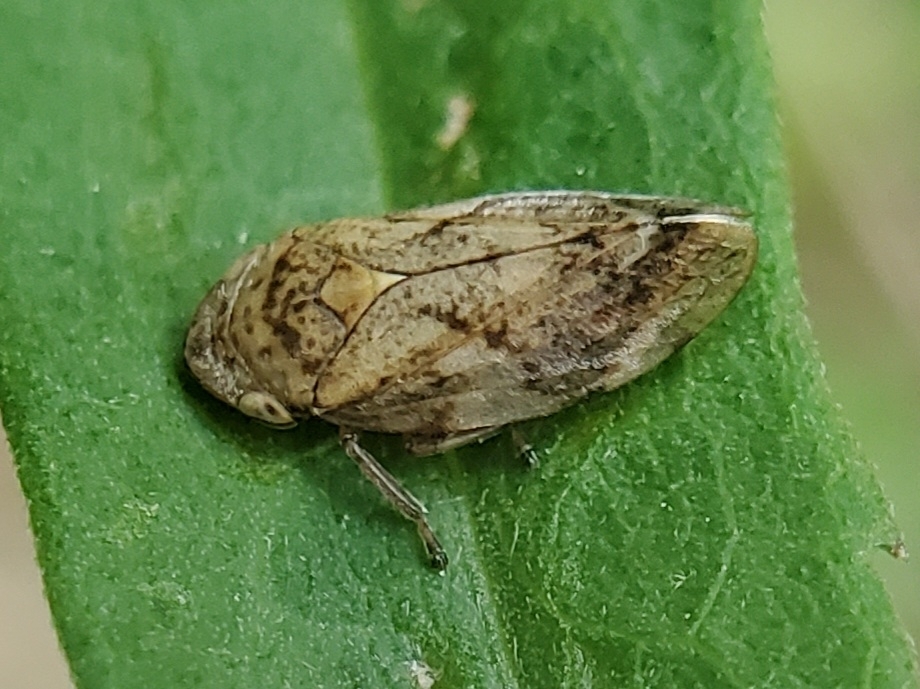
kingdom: Animalia
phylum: Arthropoda
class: Insecta
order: Hemiptera
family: Aphrophoridae
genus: Philaenus
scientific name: Philaenus spumarius
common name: Meadow spittlebug
